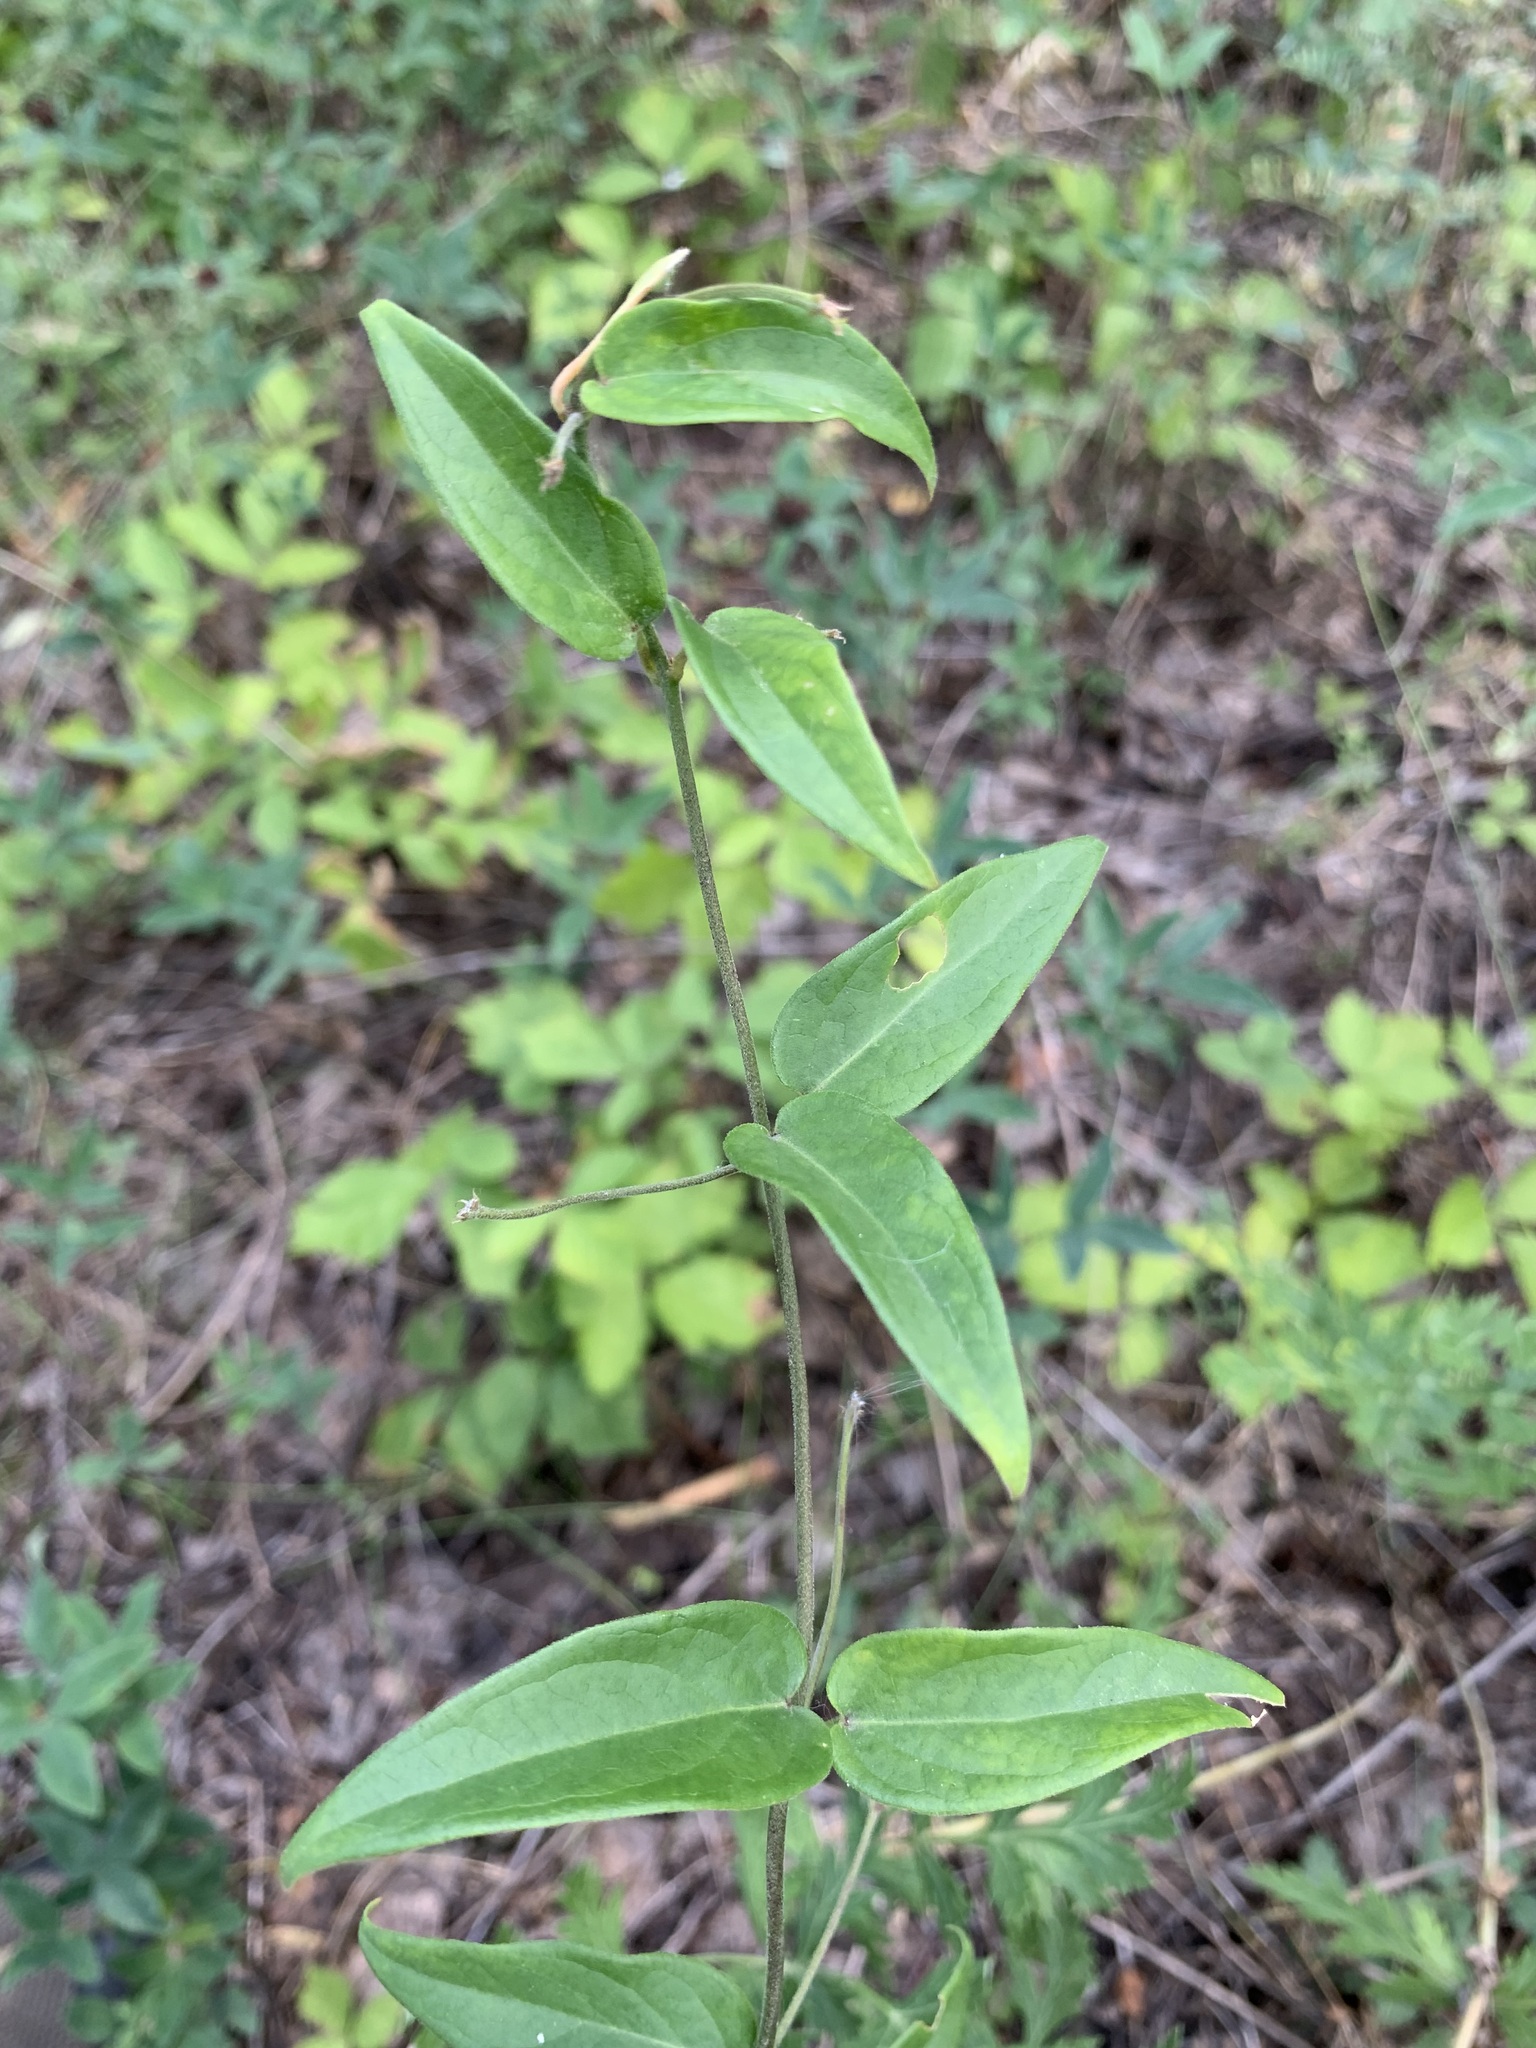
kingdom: Plantae
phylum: Tracheophyta
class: Magnoliopsida
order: Gentianales
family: Apocynaceae
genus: Vincetoxicum
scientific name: Vincetoxicum hirundinaria
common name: White swallowwort
